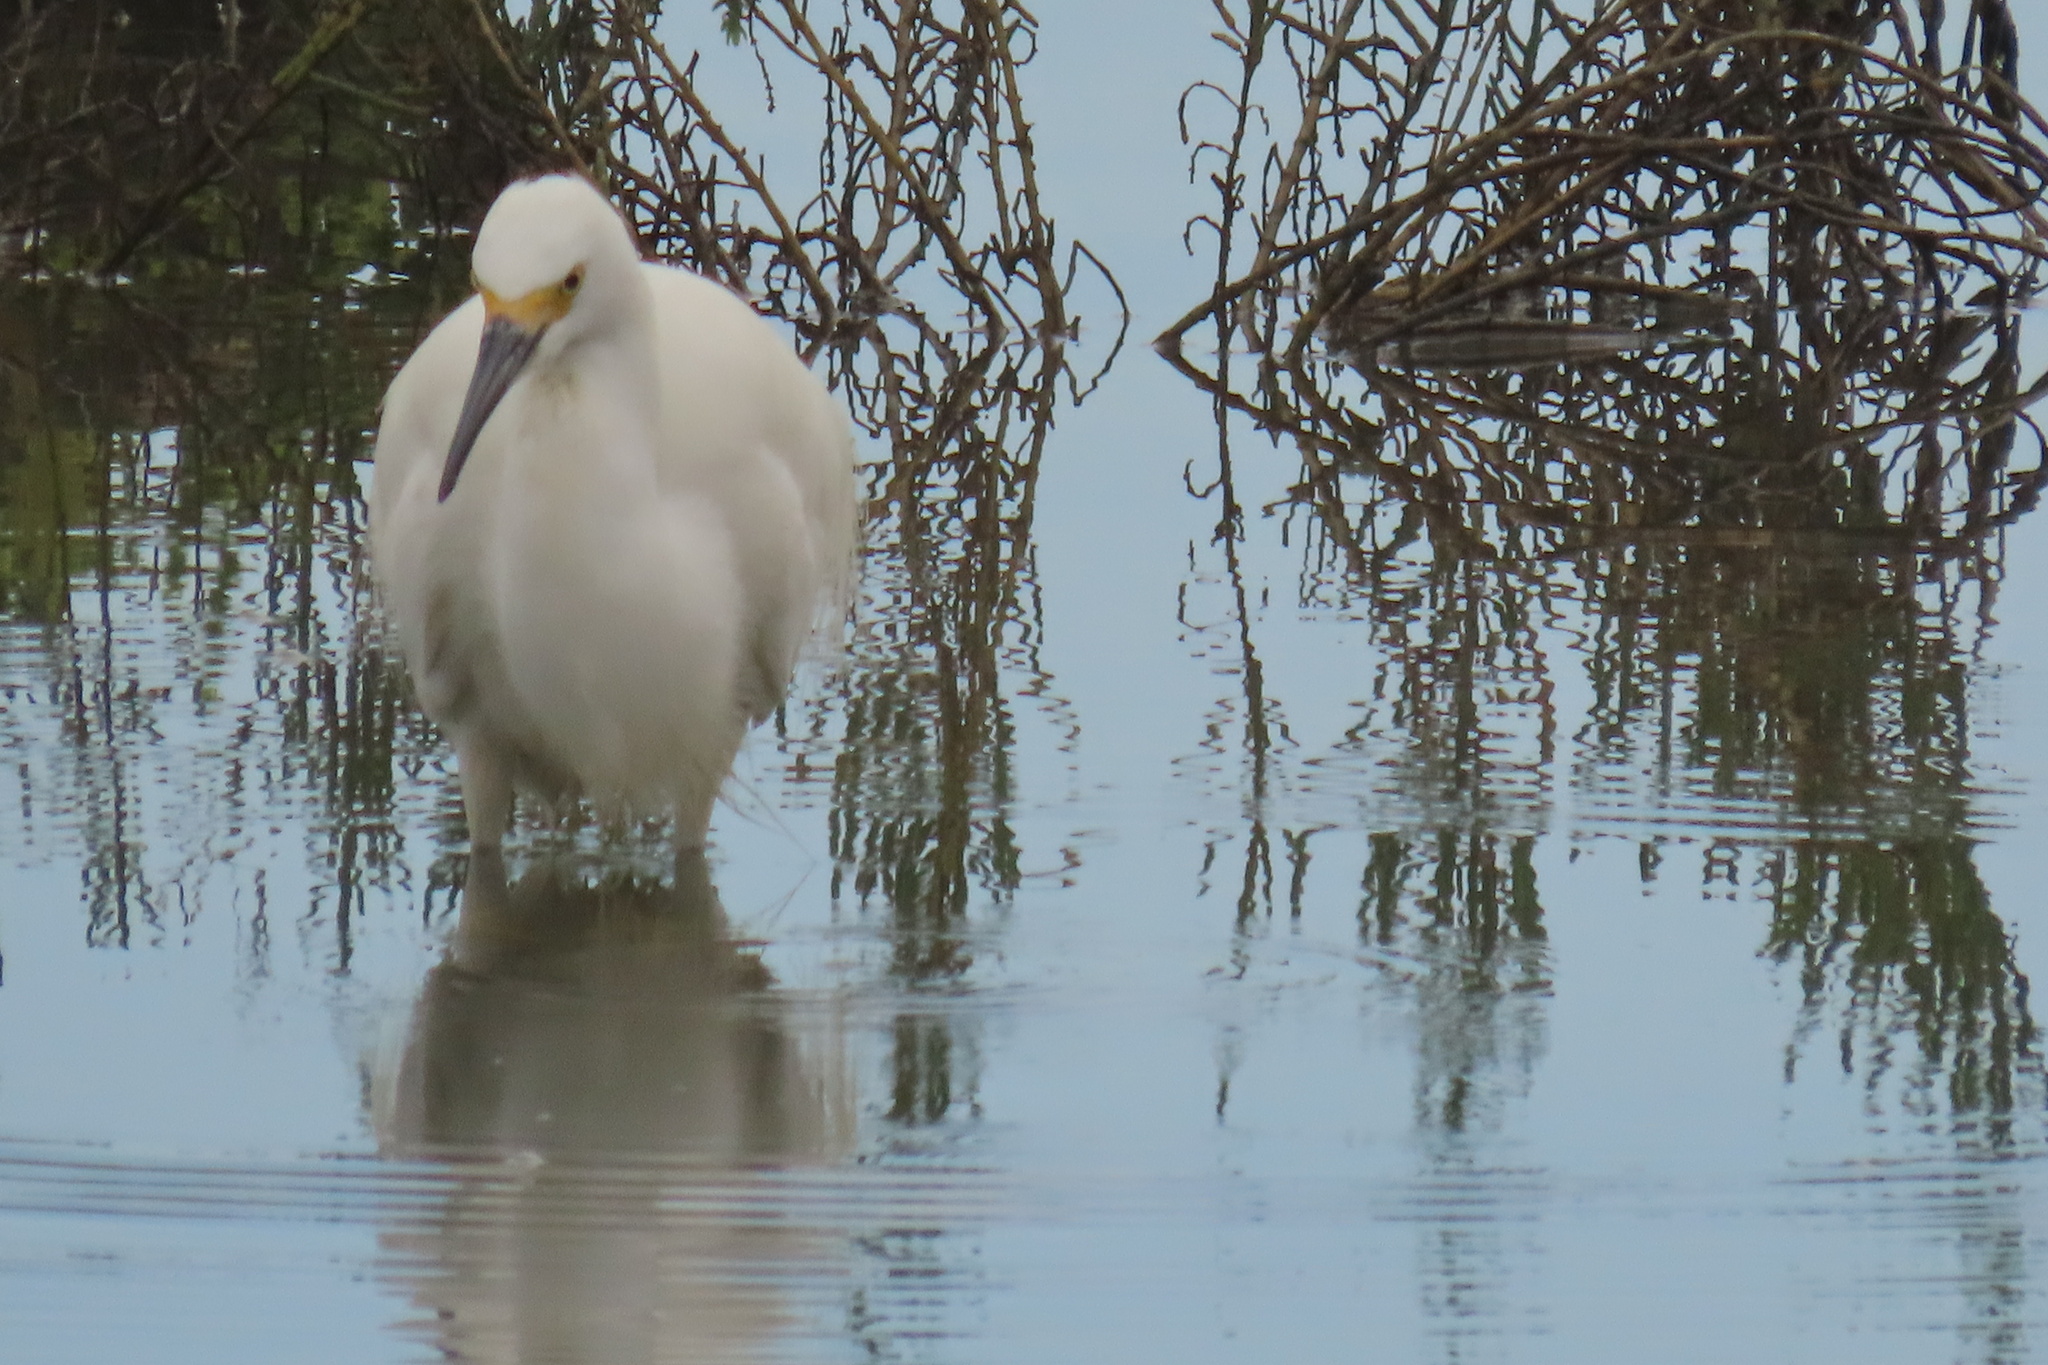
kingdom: Animalia
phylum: Chordata
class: Aves
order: Pelecaniformes
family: Ardeidae
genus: Egretta
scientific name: Egretta thula
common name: Snowy egret
